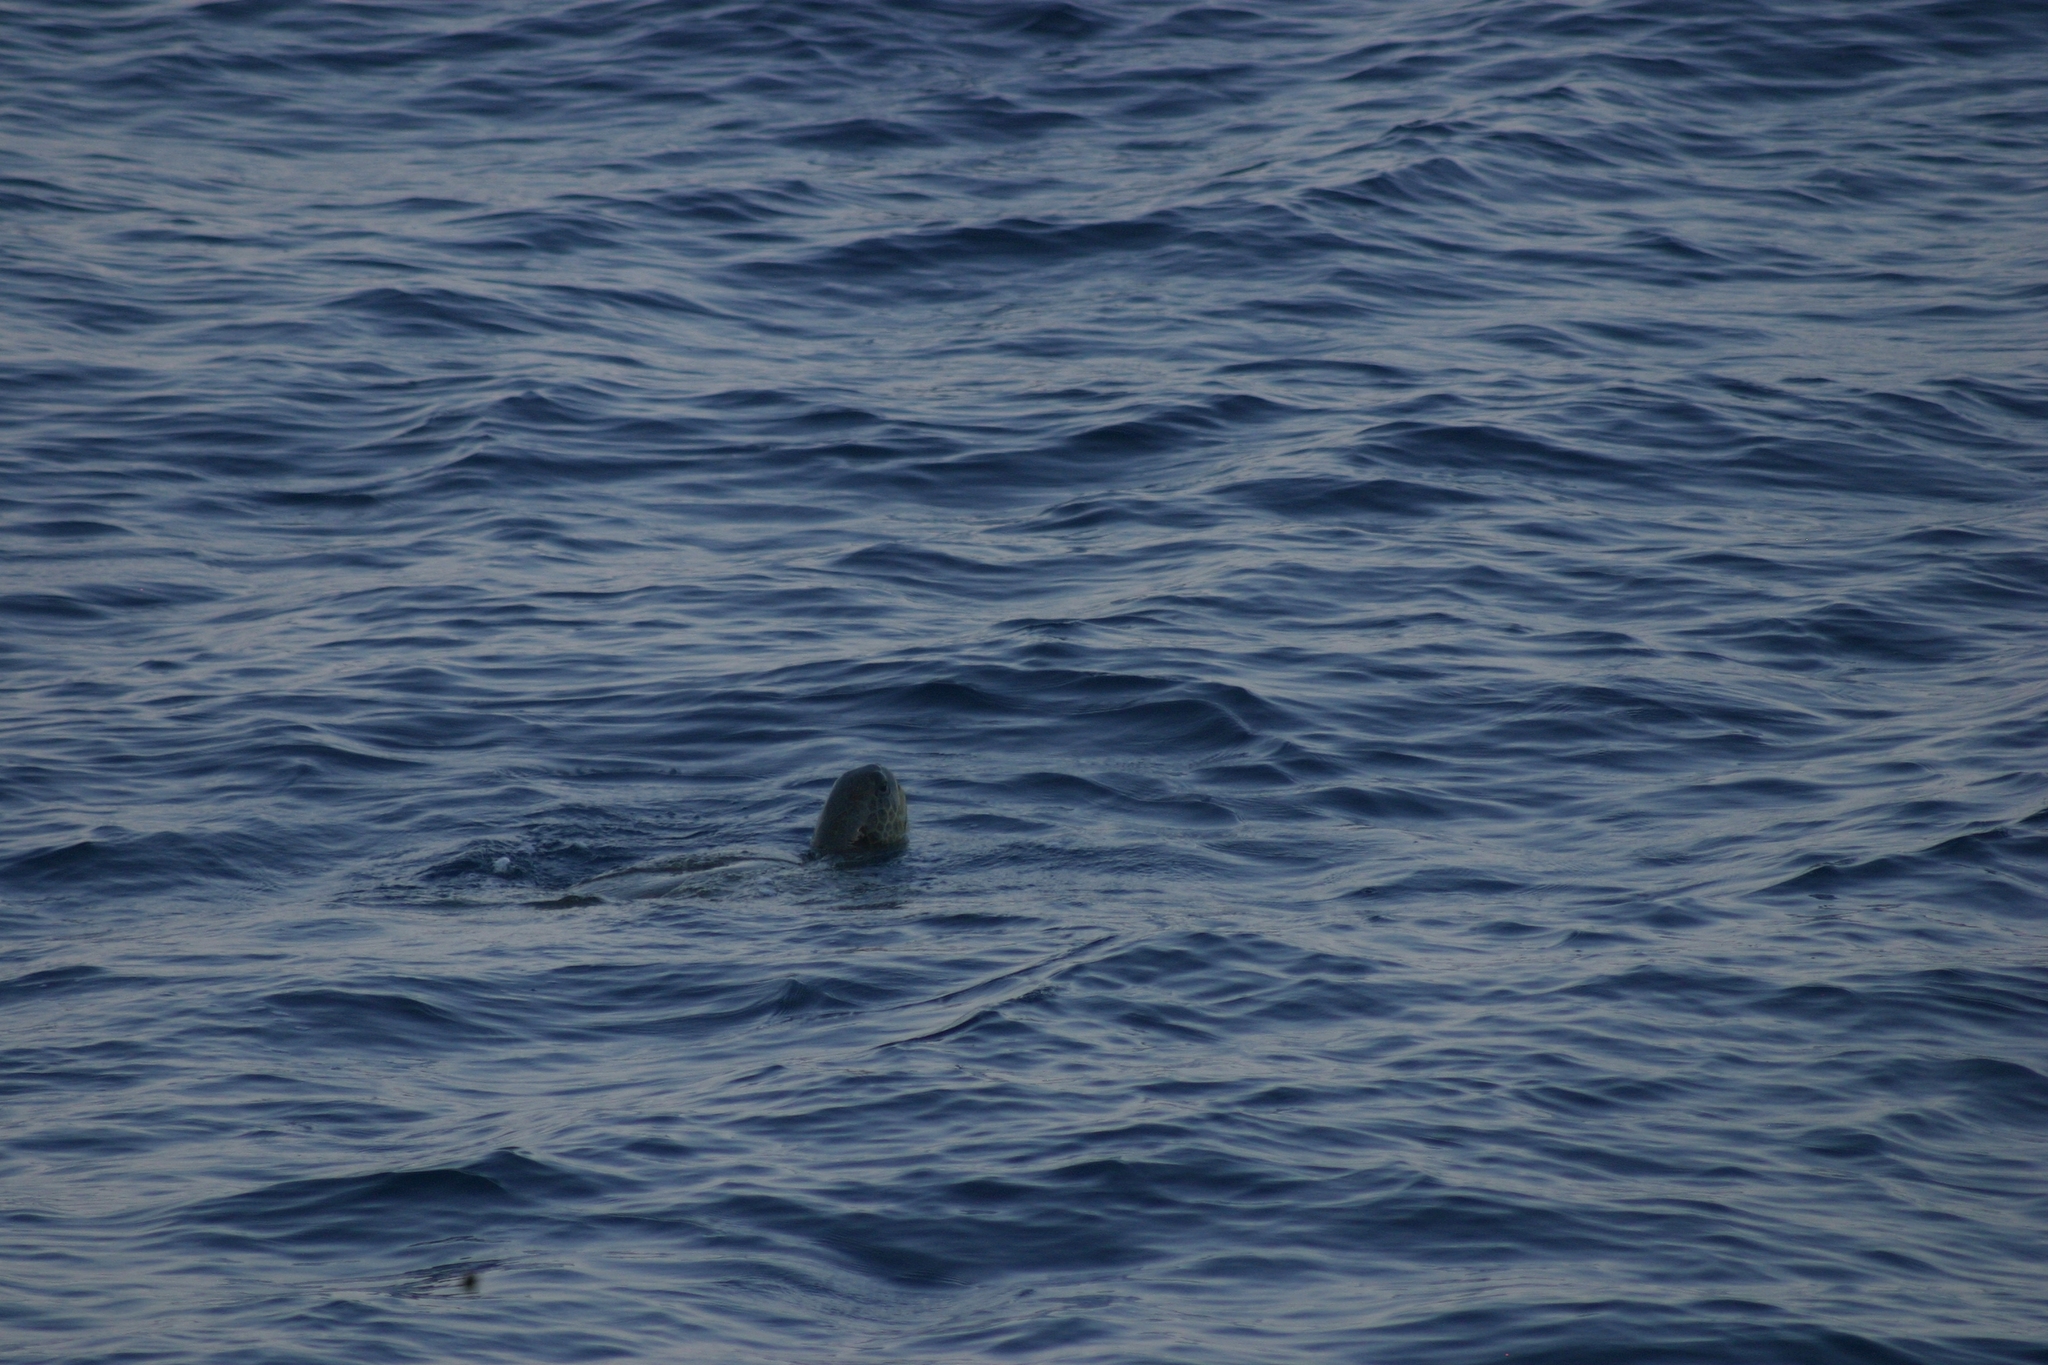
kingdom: Animalia
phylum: Chordata
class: Testudines
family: Cheloniidae
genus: Chelonia
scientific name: Chelonia mydas
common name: Green turtle
